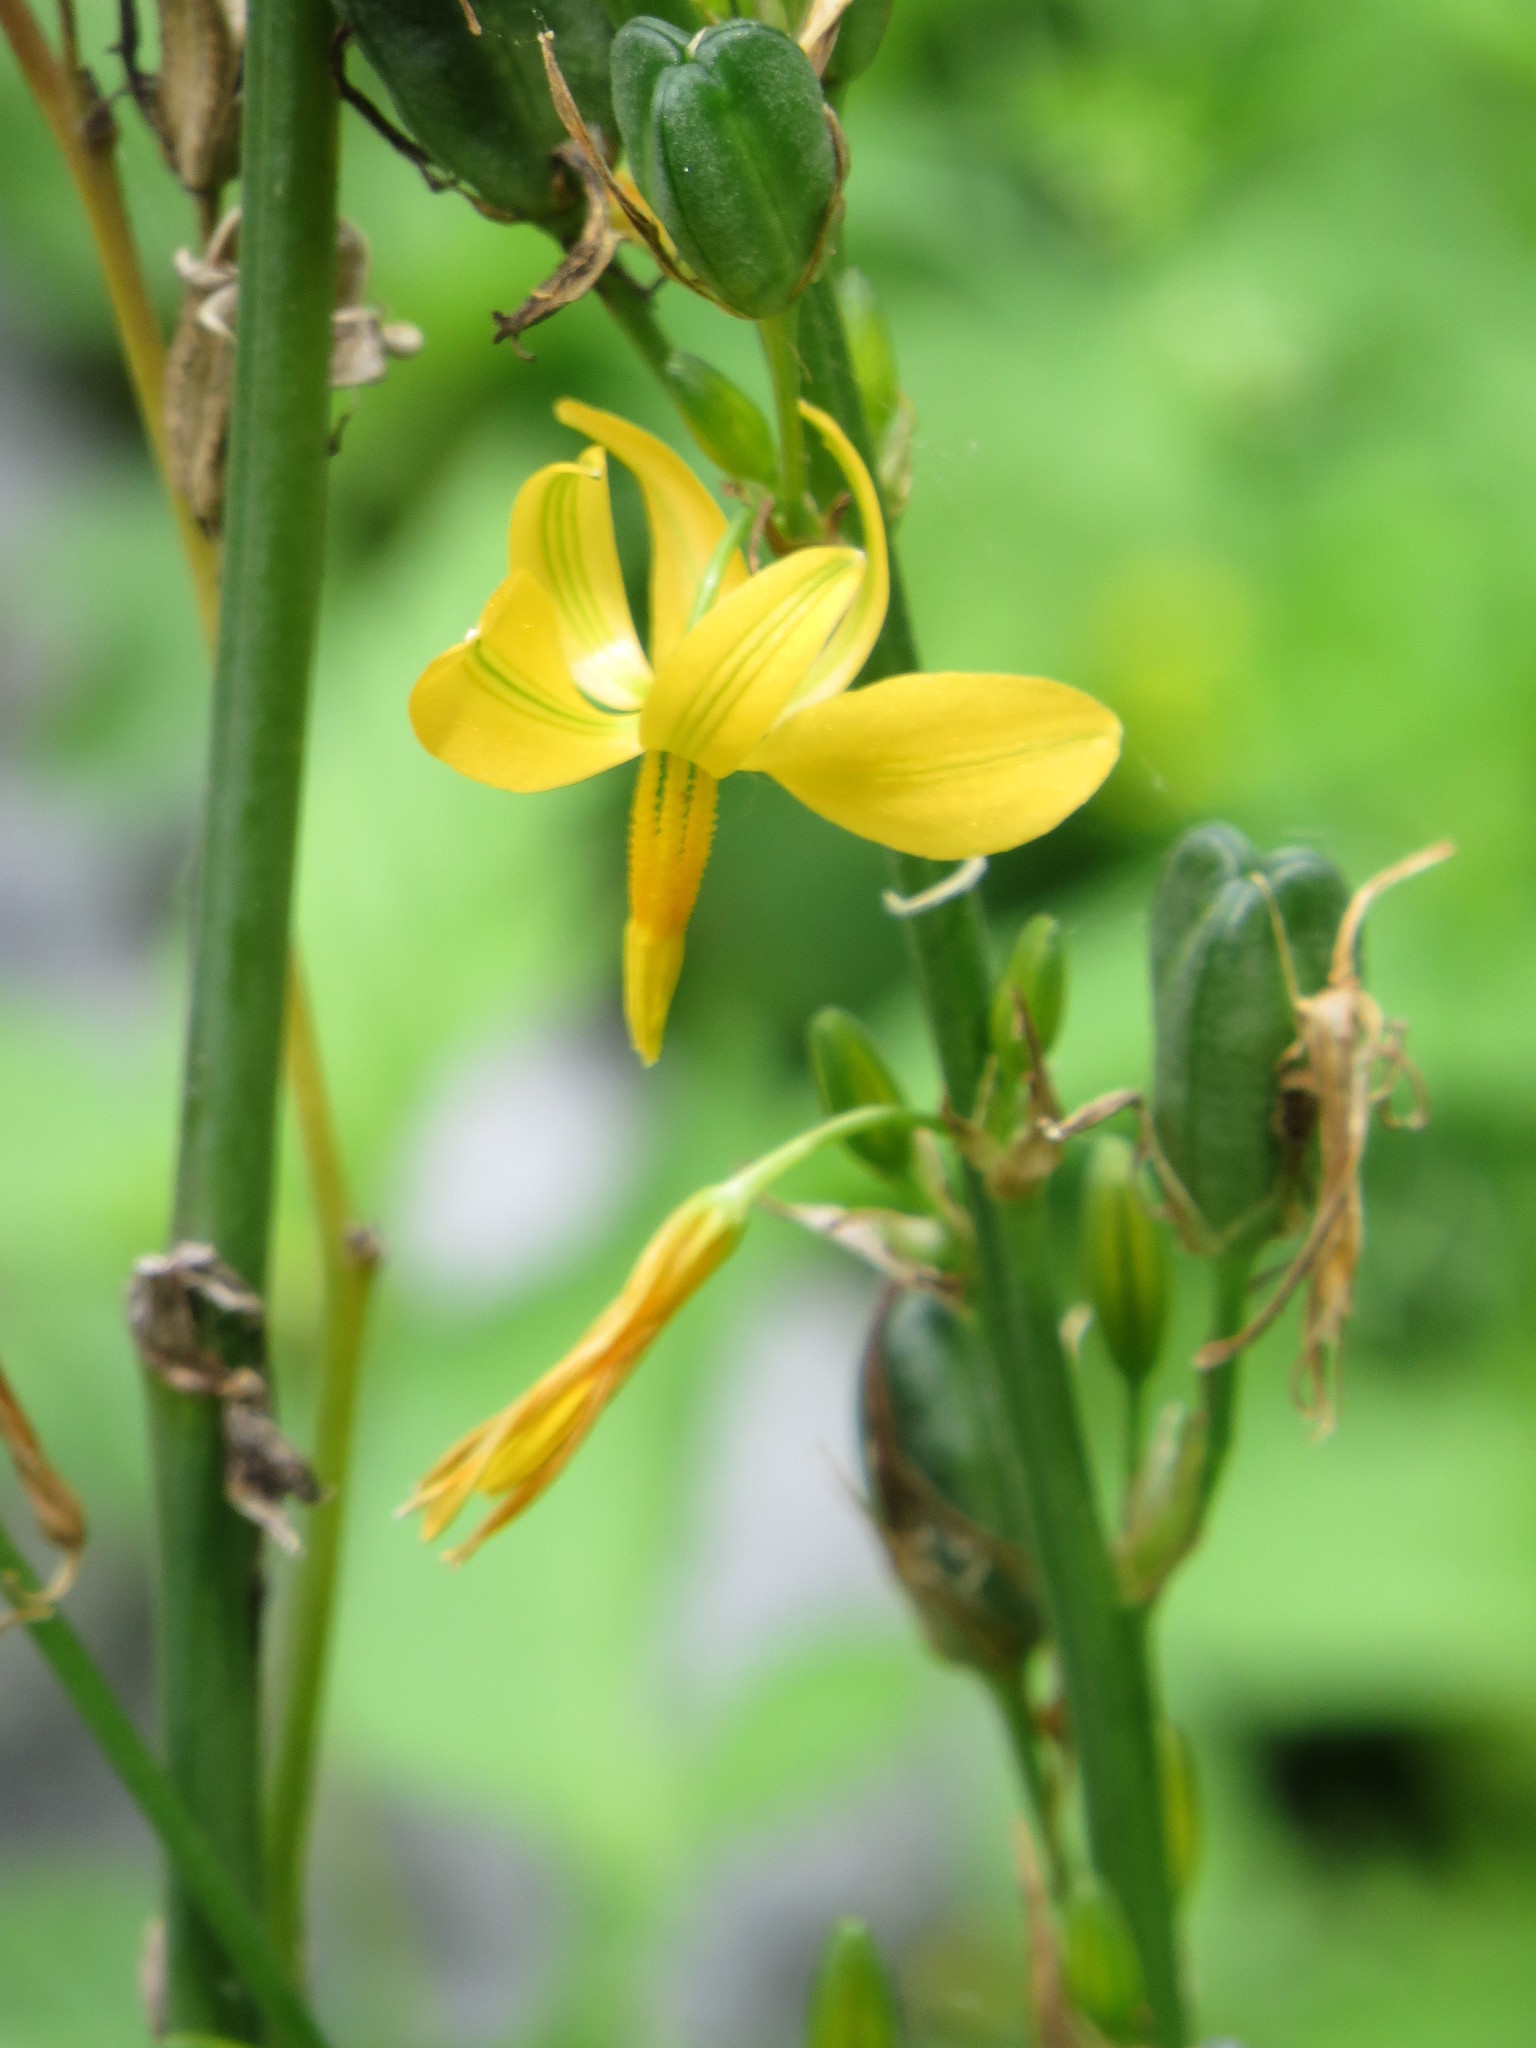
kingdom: Plantae
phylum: Tracheophyta
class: Liliopsida
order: Asparagales
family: Asparagaceae
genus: Echeandia
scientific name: Echeandia texensis
